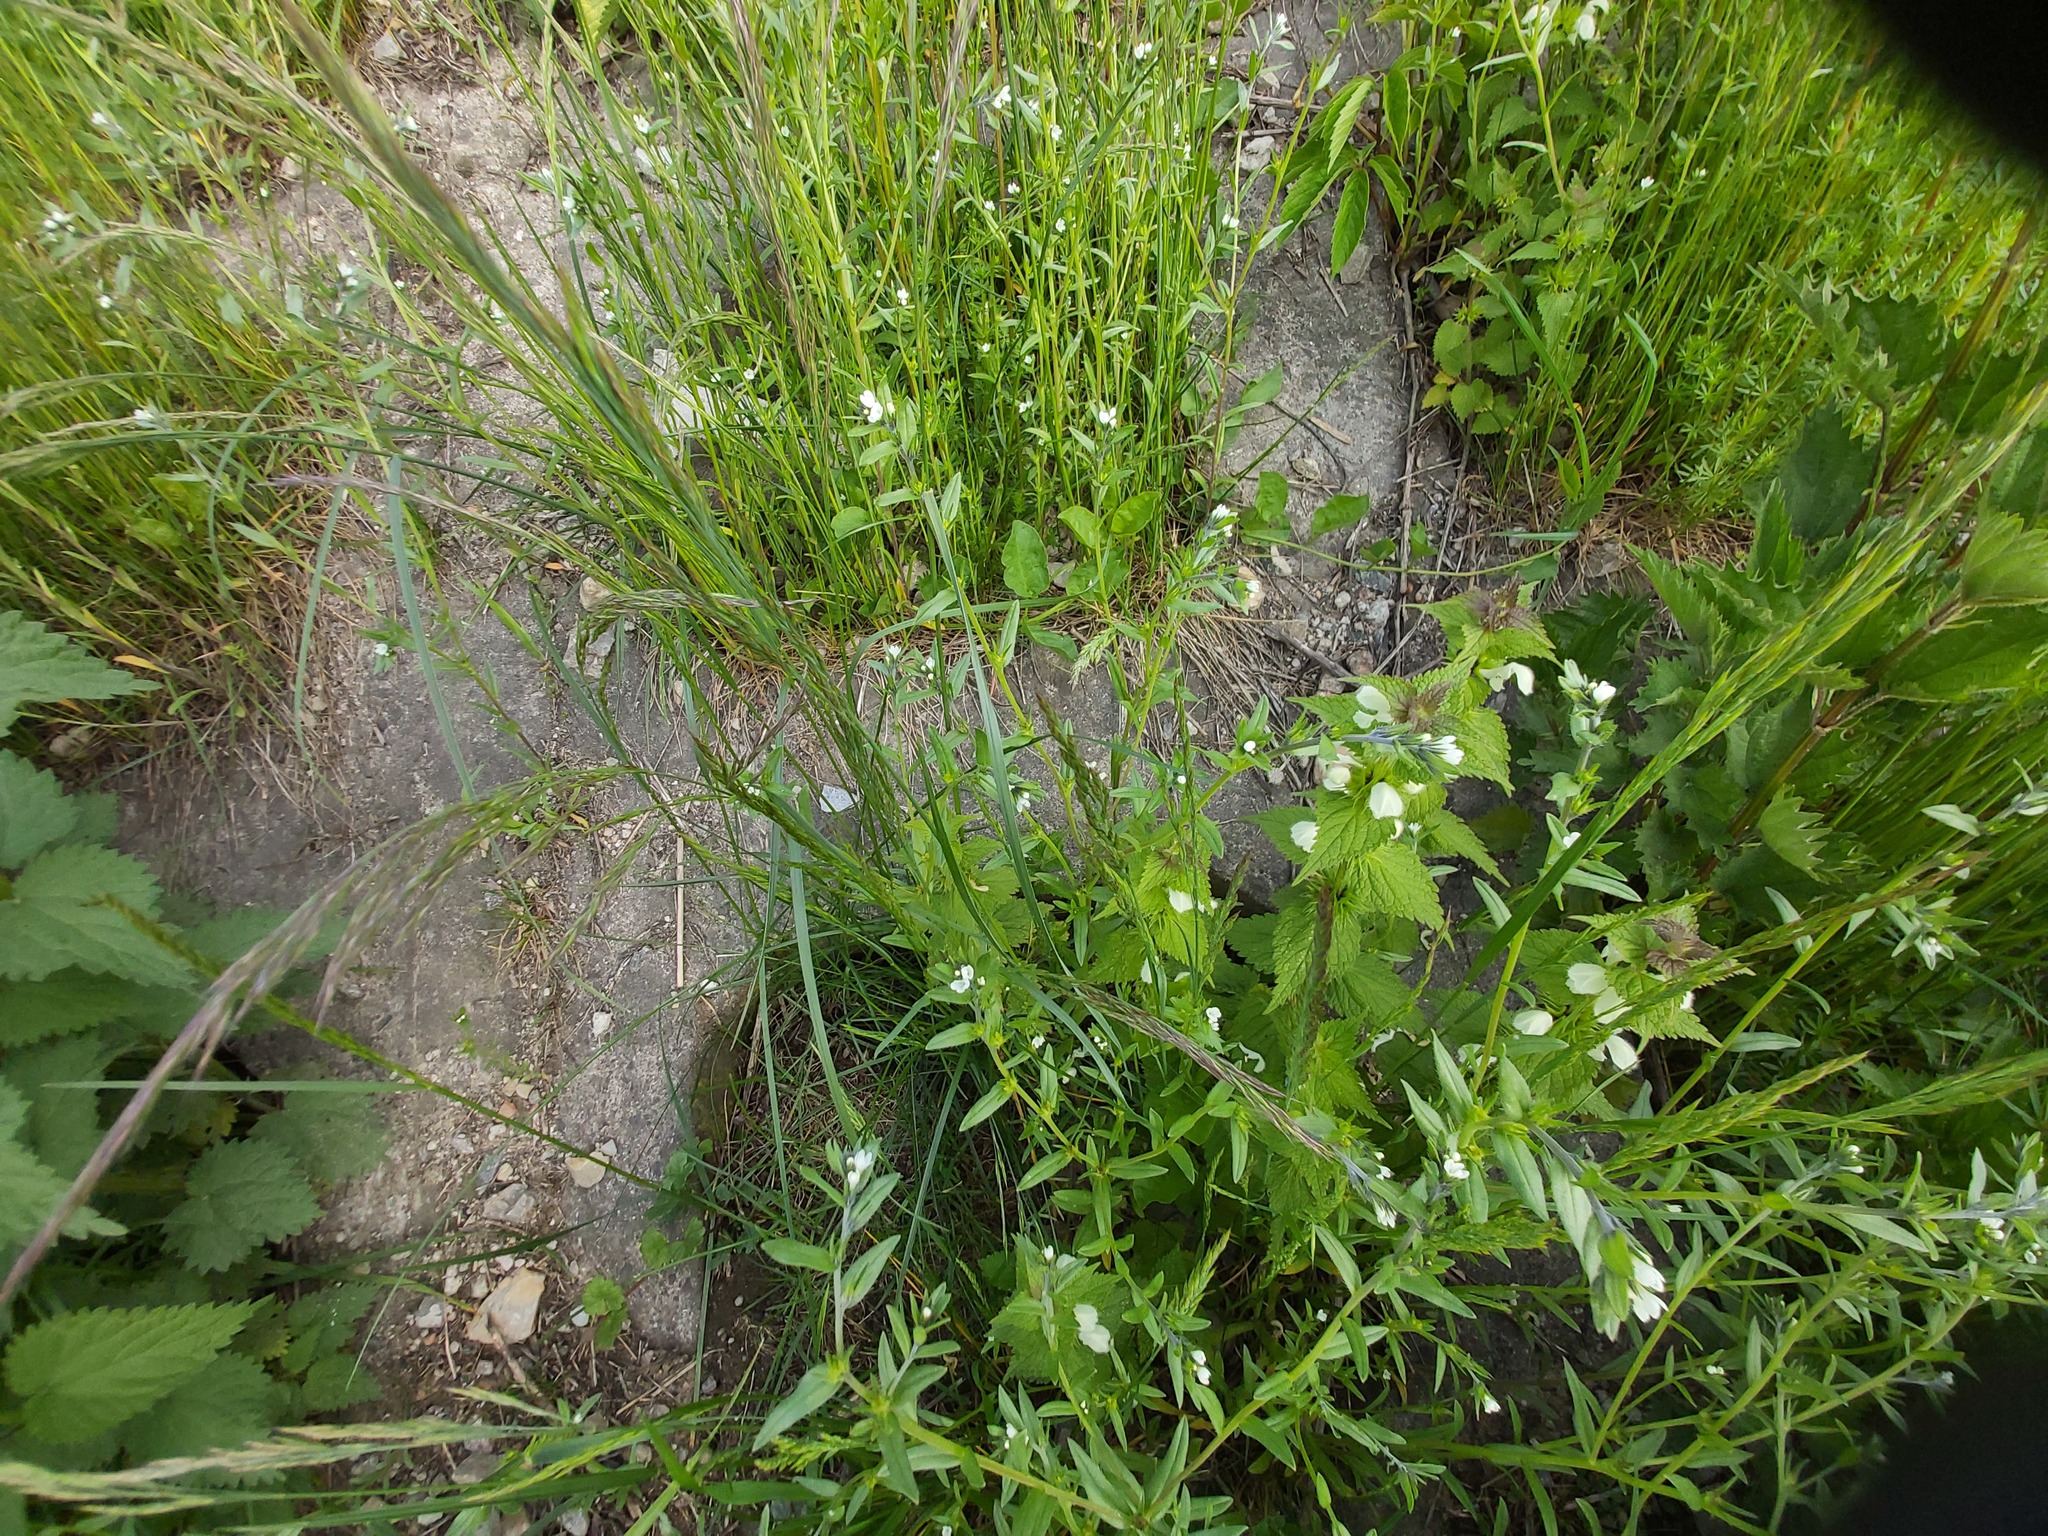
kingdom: Plantae
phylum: Tracheophyta
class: Magnoliopsida
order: Boraginales
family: Boraginaceae
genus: Buglossoides
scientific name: Buglossoides arvensis
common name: Corn gromwell
